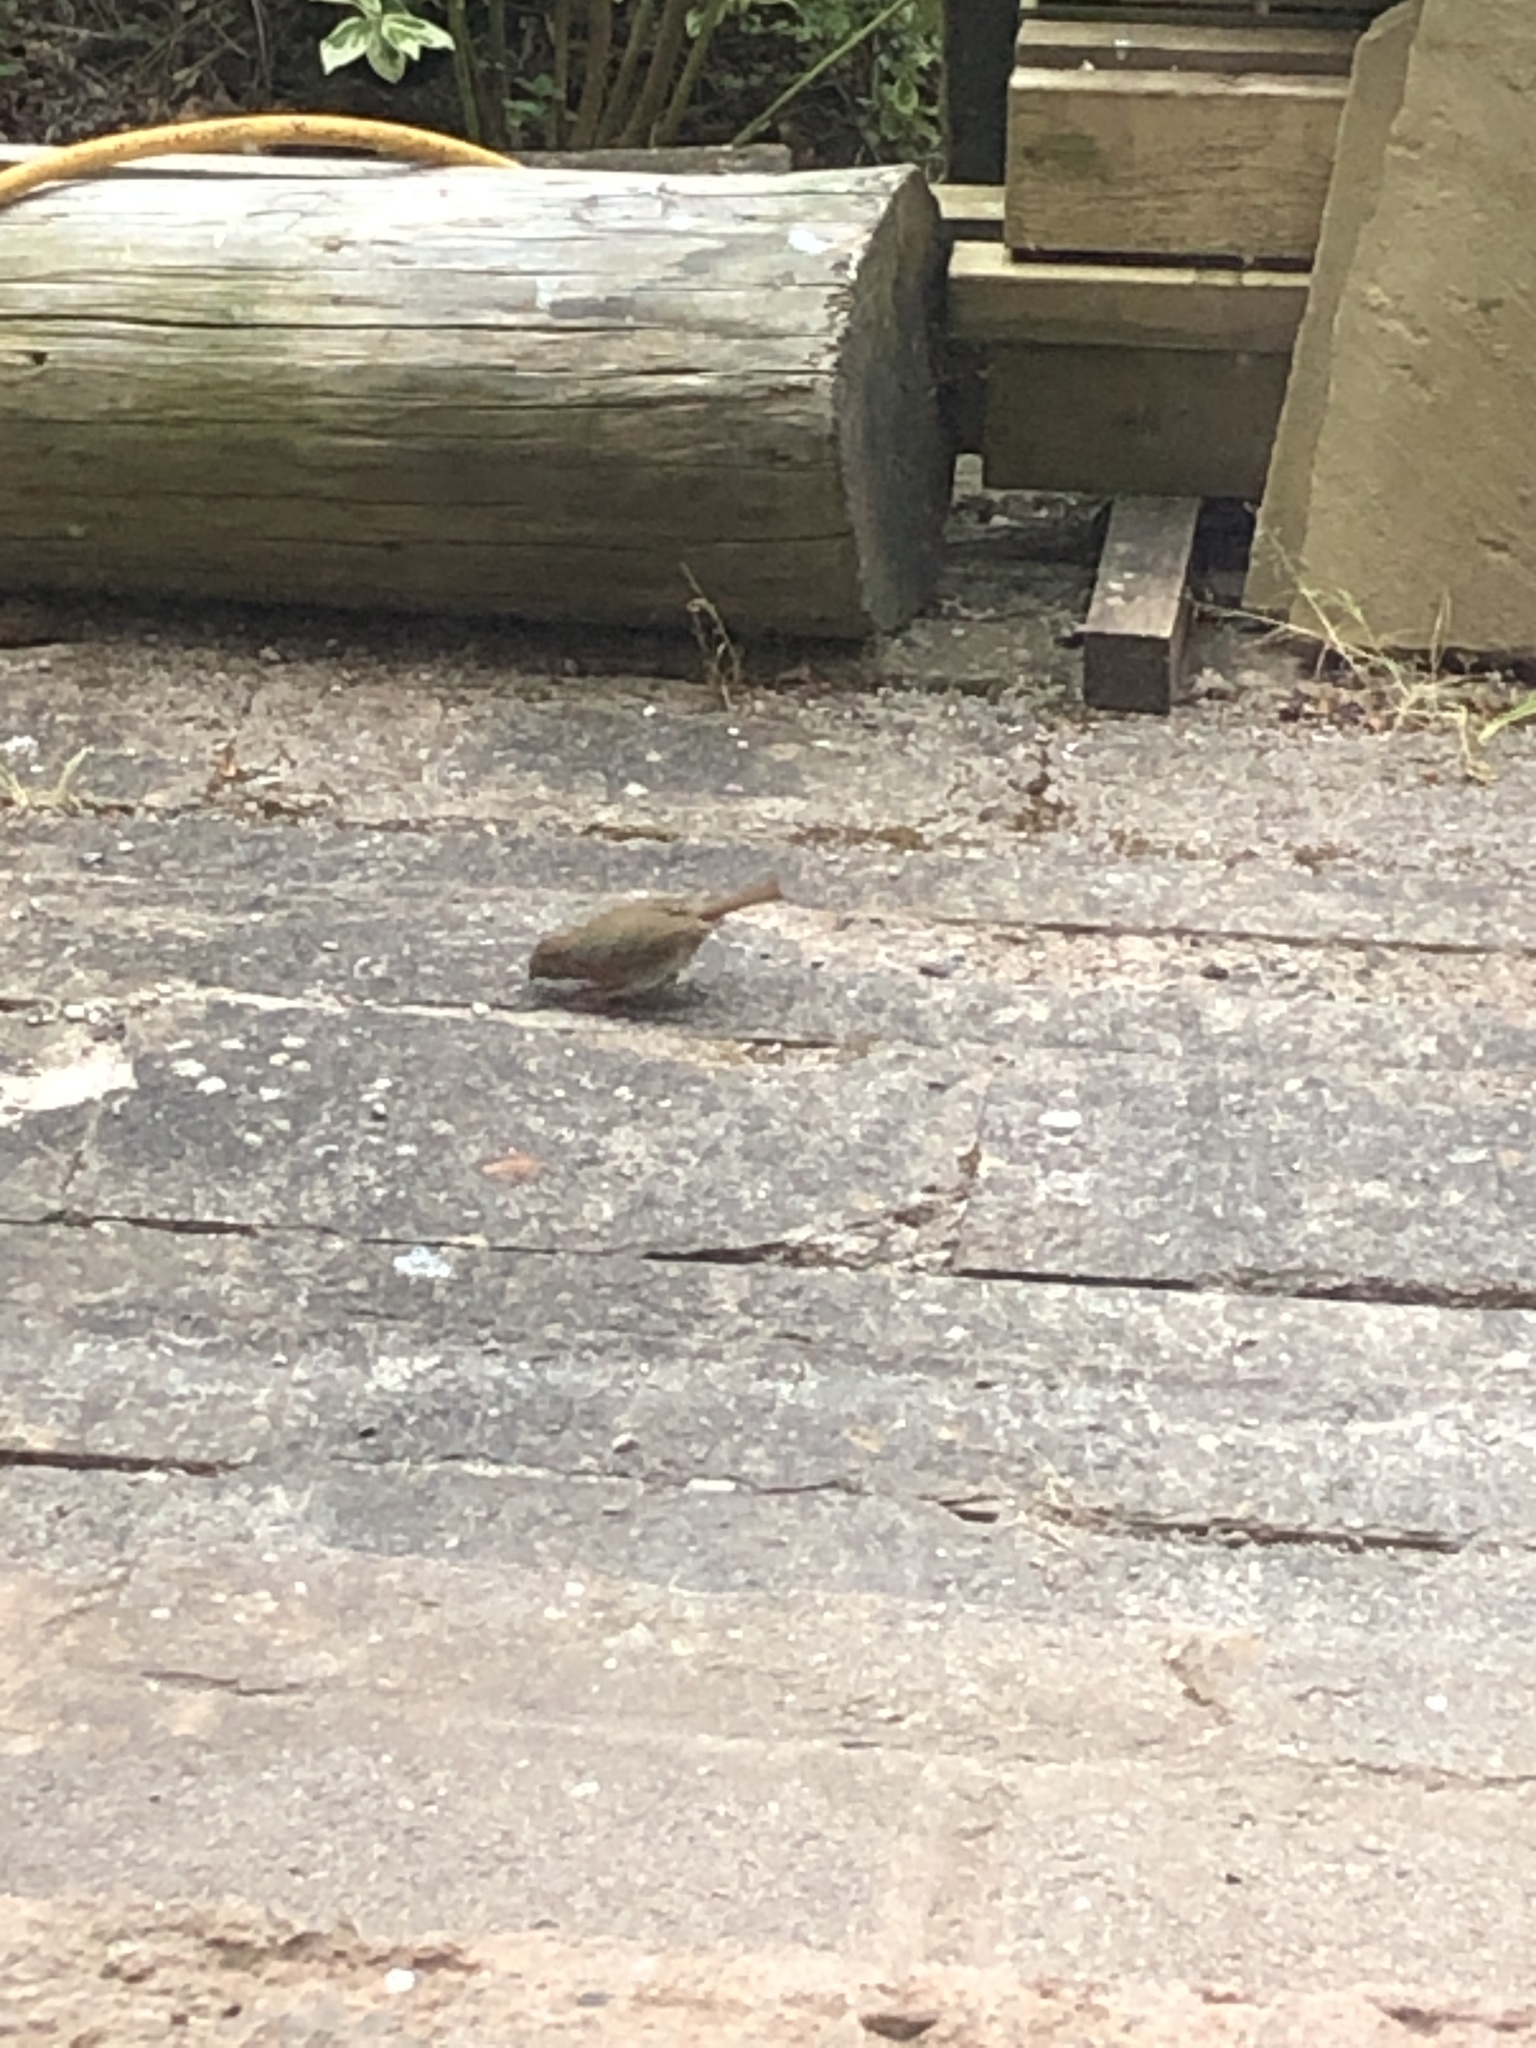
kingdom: Animalia
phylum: Chordata
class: Aves
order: Passeriformes
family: Muscicapidae
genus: Erithacus
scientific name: Erithacus rubecula
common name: European robin
